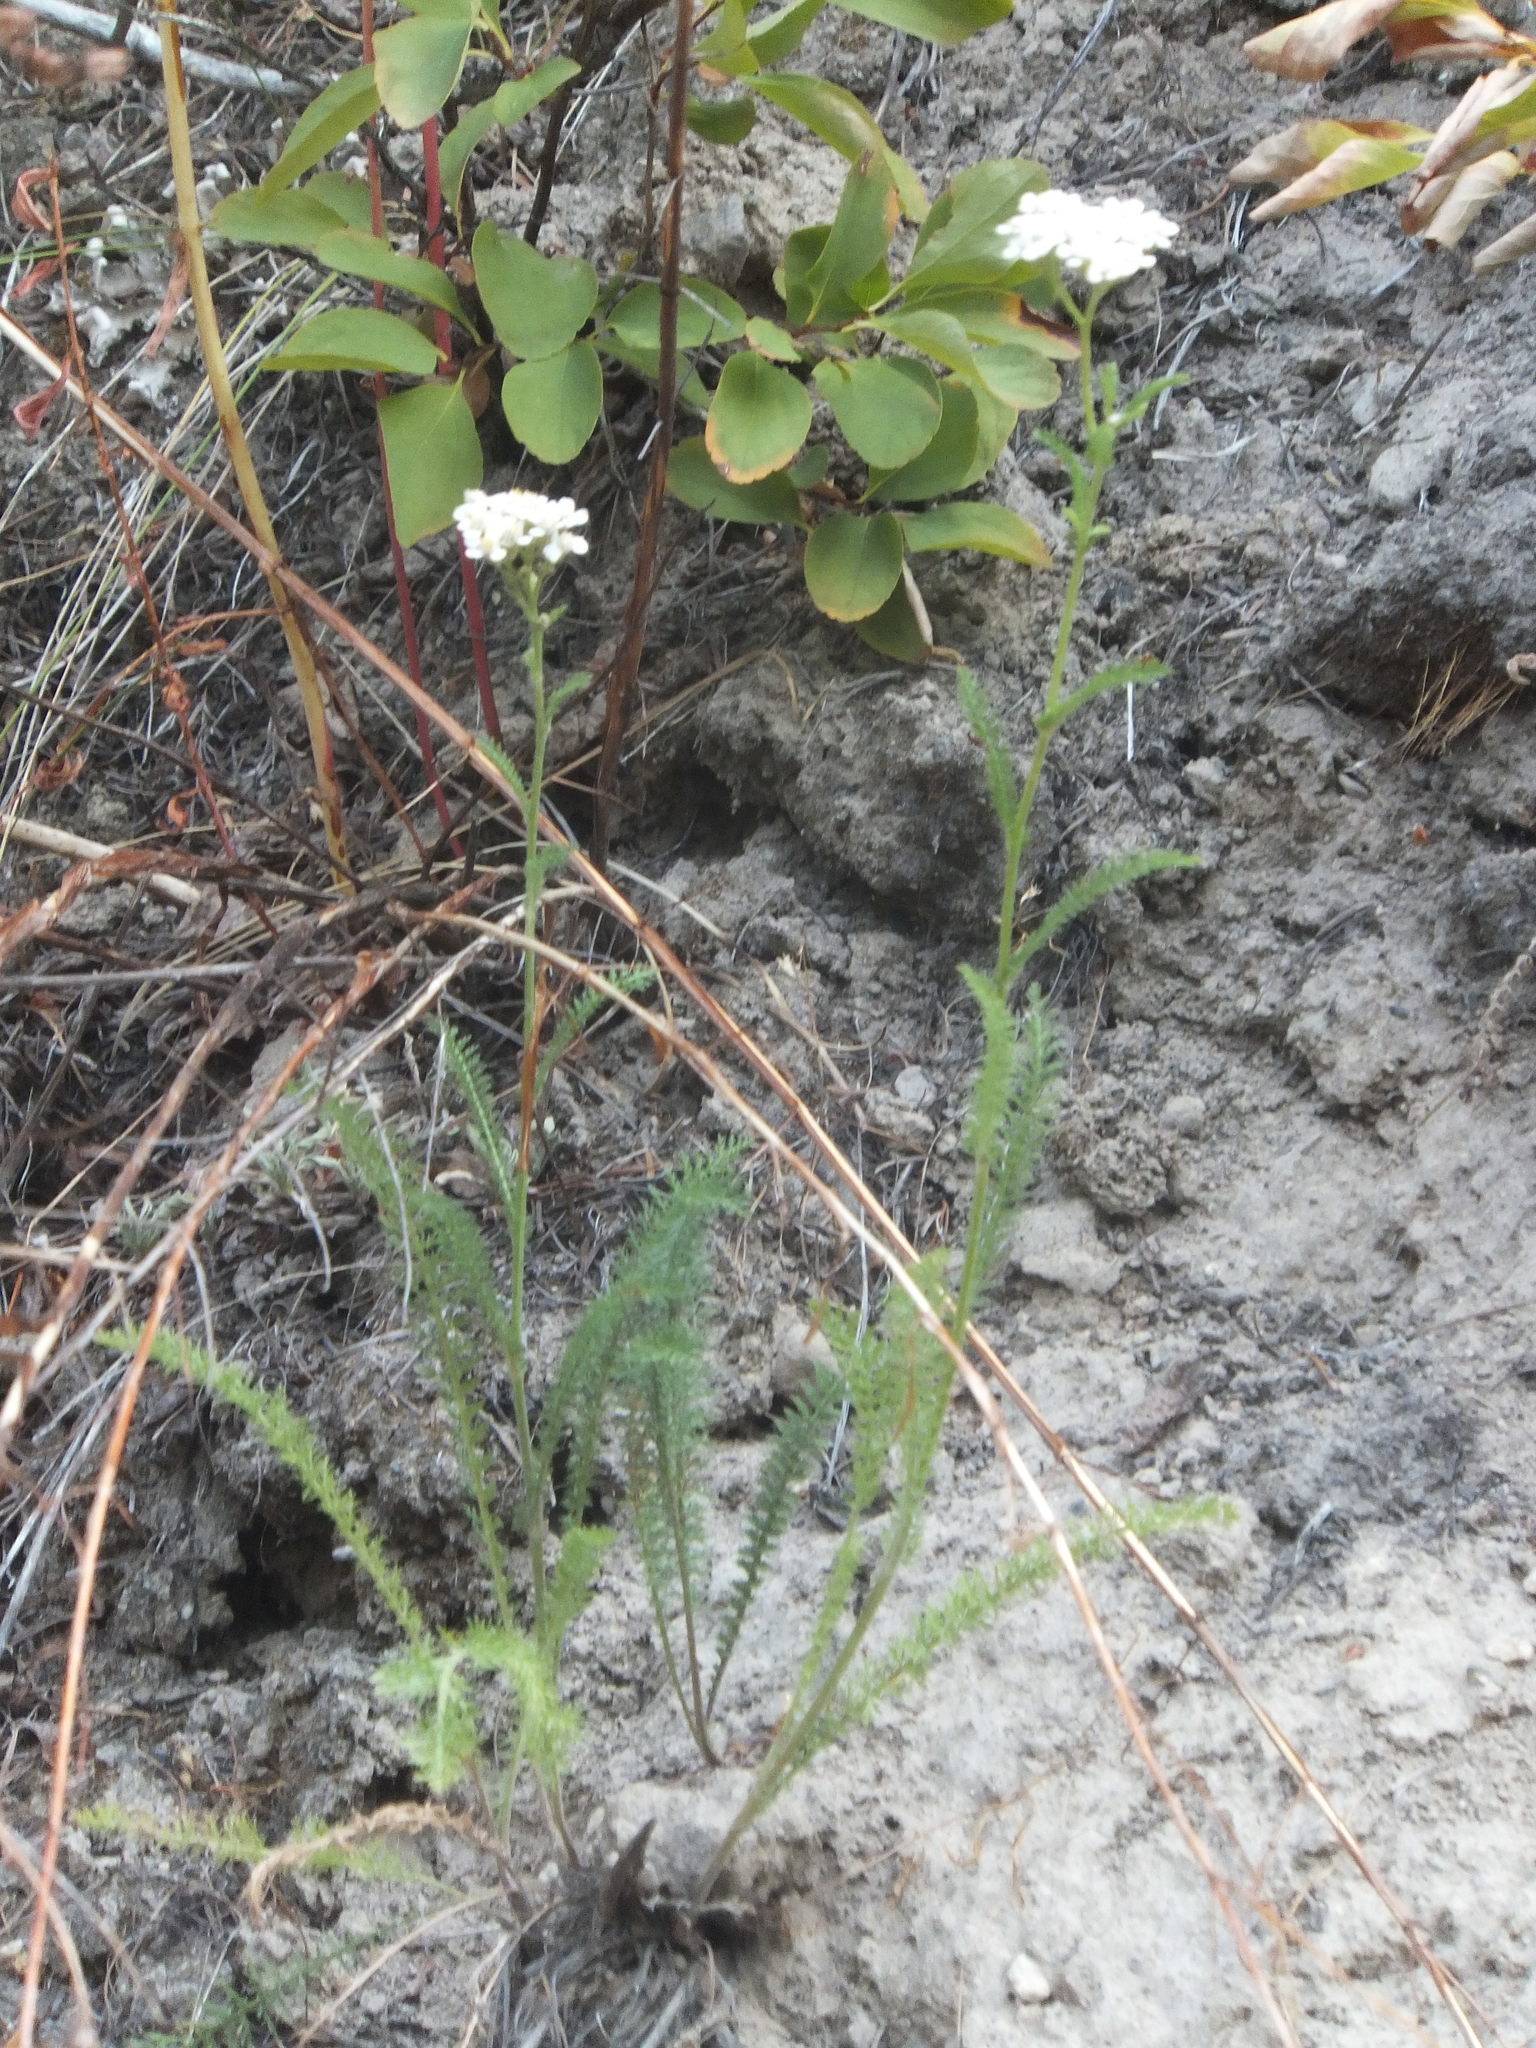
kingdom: Plantae
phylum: Tracheophyta
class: Magnoliopsida
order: Asterales
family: Asteraceae
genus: Achillea
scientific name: Achillea millefolium
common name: Yarrow
